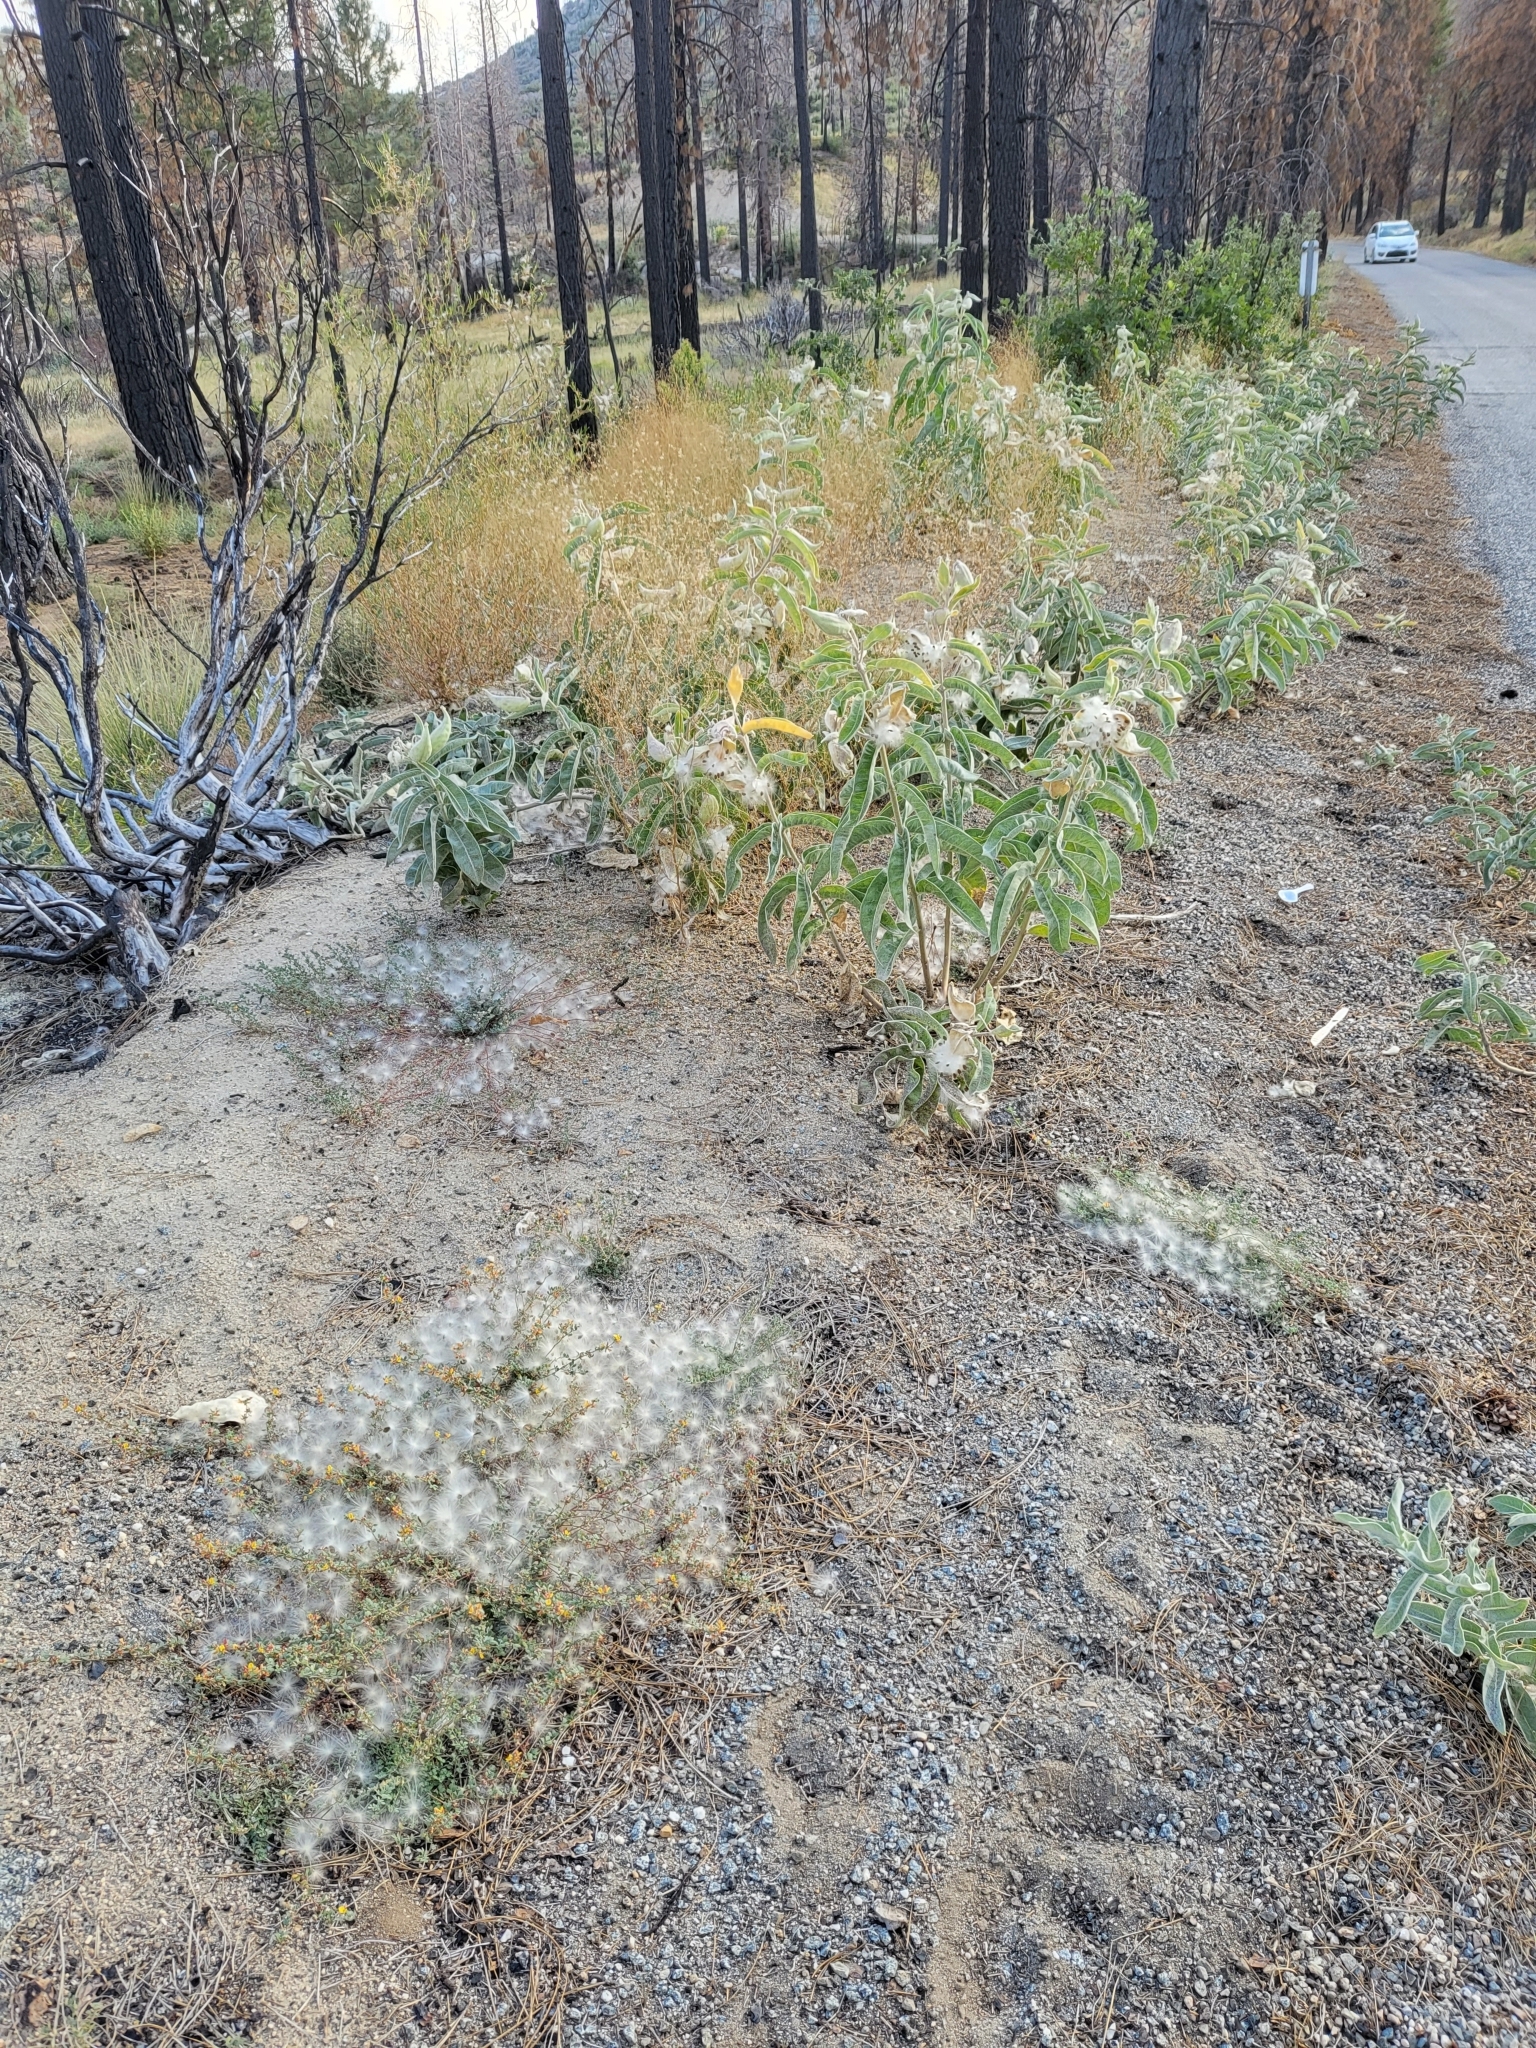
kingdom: Plantae
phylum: Tracheophyta
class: Magnoliopsida
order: Gentianales
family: Apocynaceae
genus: Asclepias
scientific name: Asclepias eriocarpa
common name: Indian milkweed
